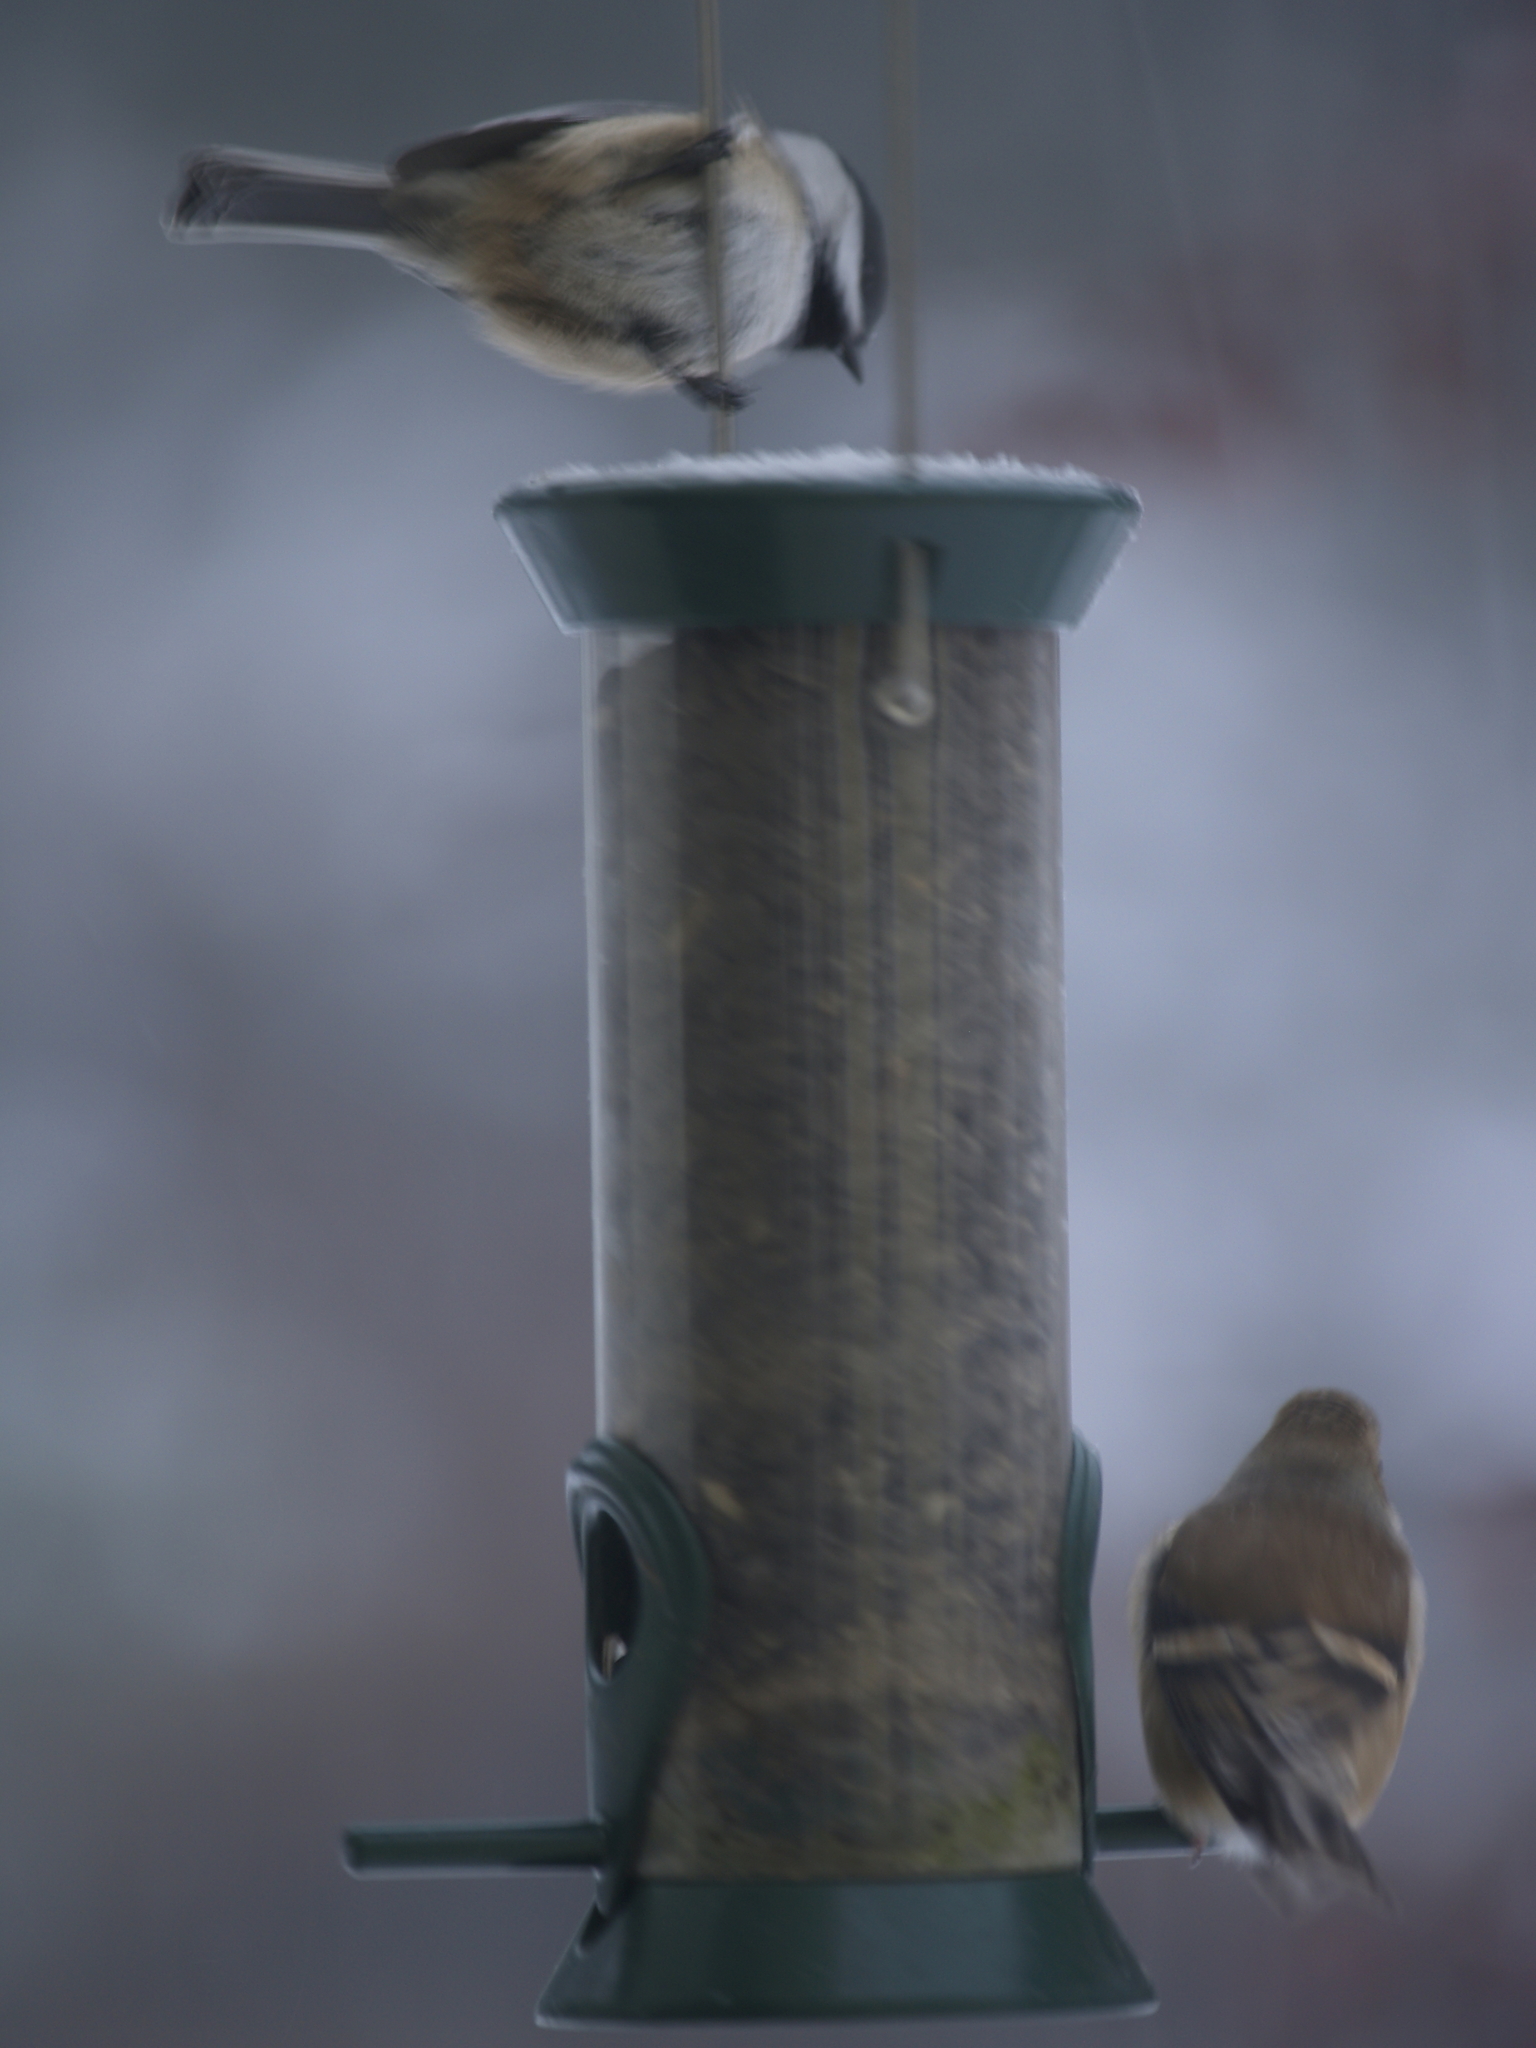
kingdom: Animalia
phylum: Chordata
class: Aves
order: Passeriformes
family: Paridae
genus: Poecile
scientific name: Poecile atricapillus
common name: Black-capped chickadee
